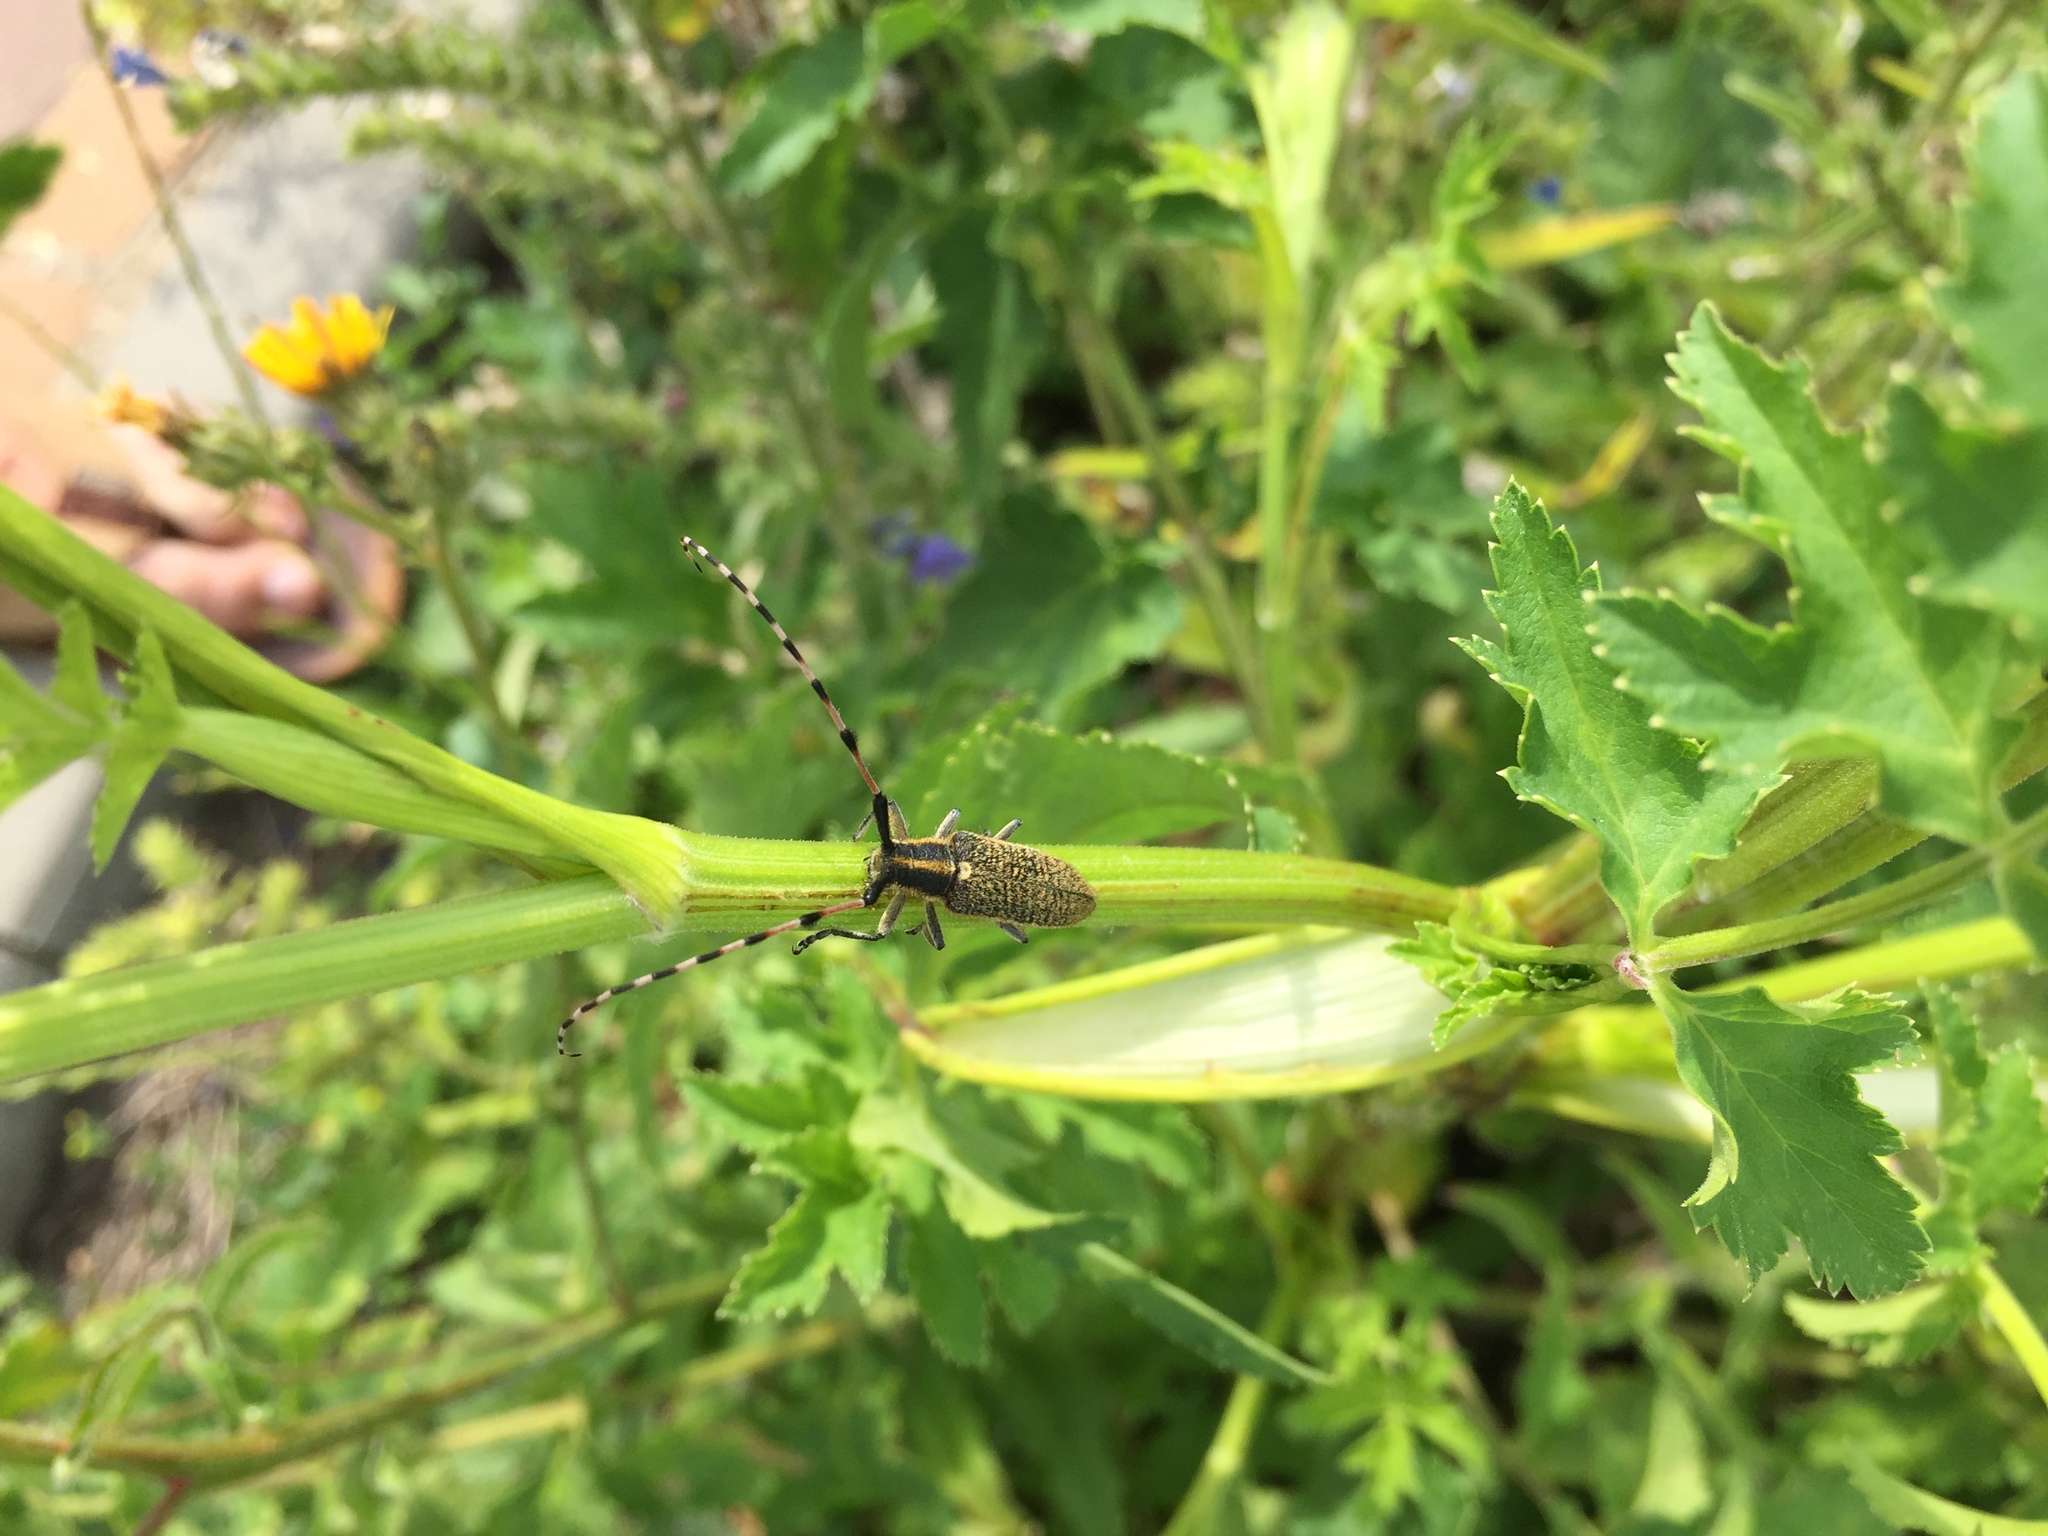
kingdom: Animalia
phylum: Arthropoda
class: Insecta
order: Coleoptera
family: Cerambycidae
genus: Agapanthia
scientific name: Agapanthia villosoviridescens
